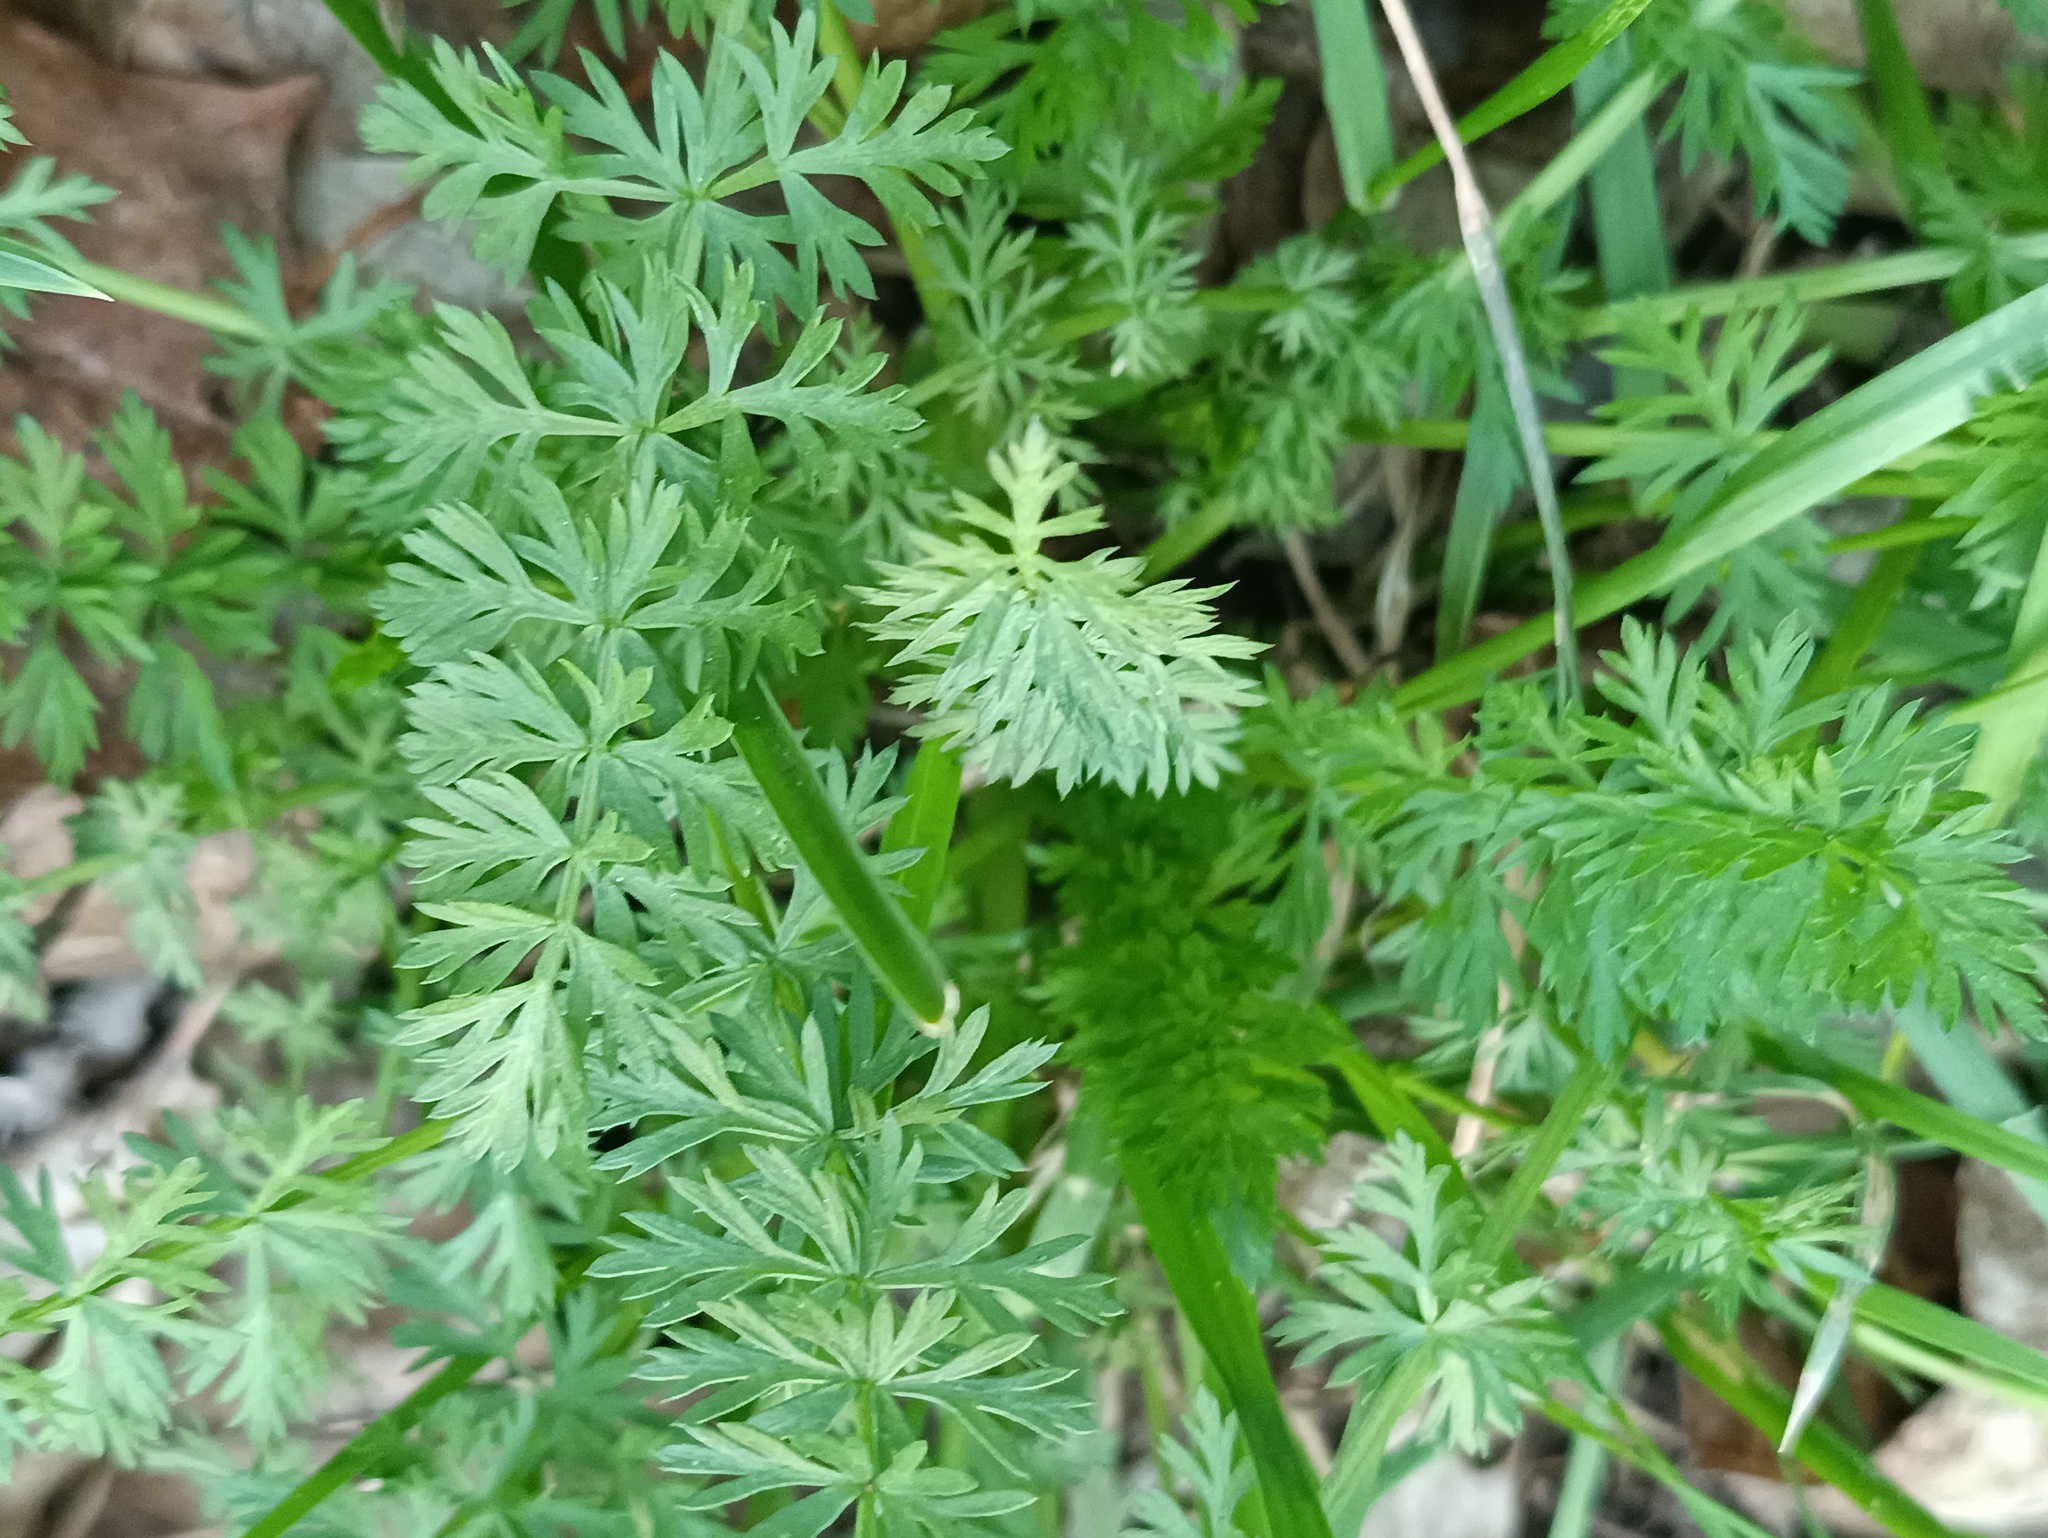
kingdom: Plantae
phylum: Tracheophyta
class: Magnoliopsida
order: Apiales
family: Apiaceae
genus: Carum
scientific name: Carum carvi
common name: Caraway
